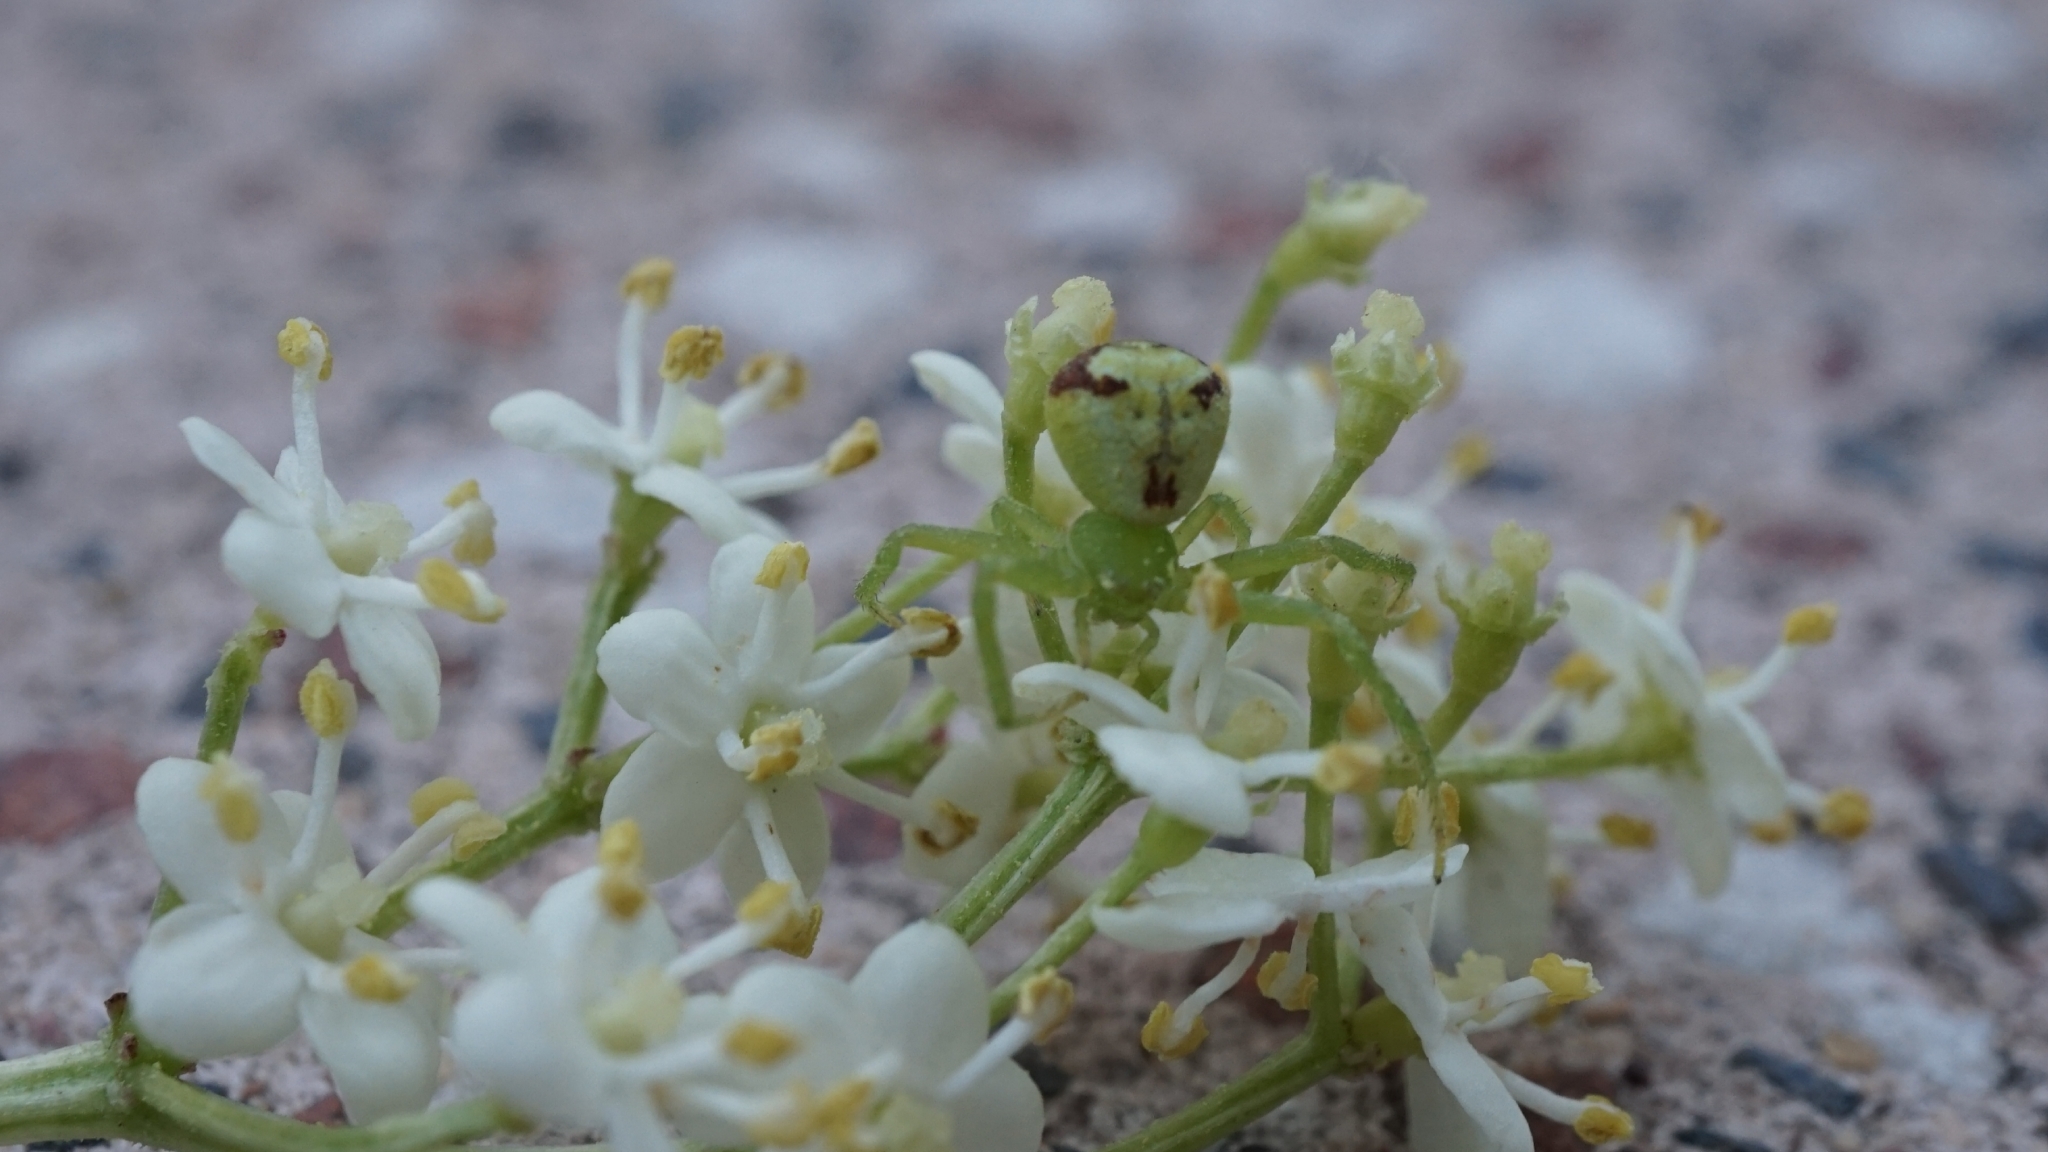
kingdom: Animalia
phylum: Arthropoda
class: Arachnida
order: Araneae
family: Thomisidae
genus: Ebrechtella
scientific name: Ebrechtella tricuspidata
